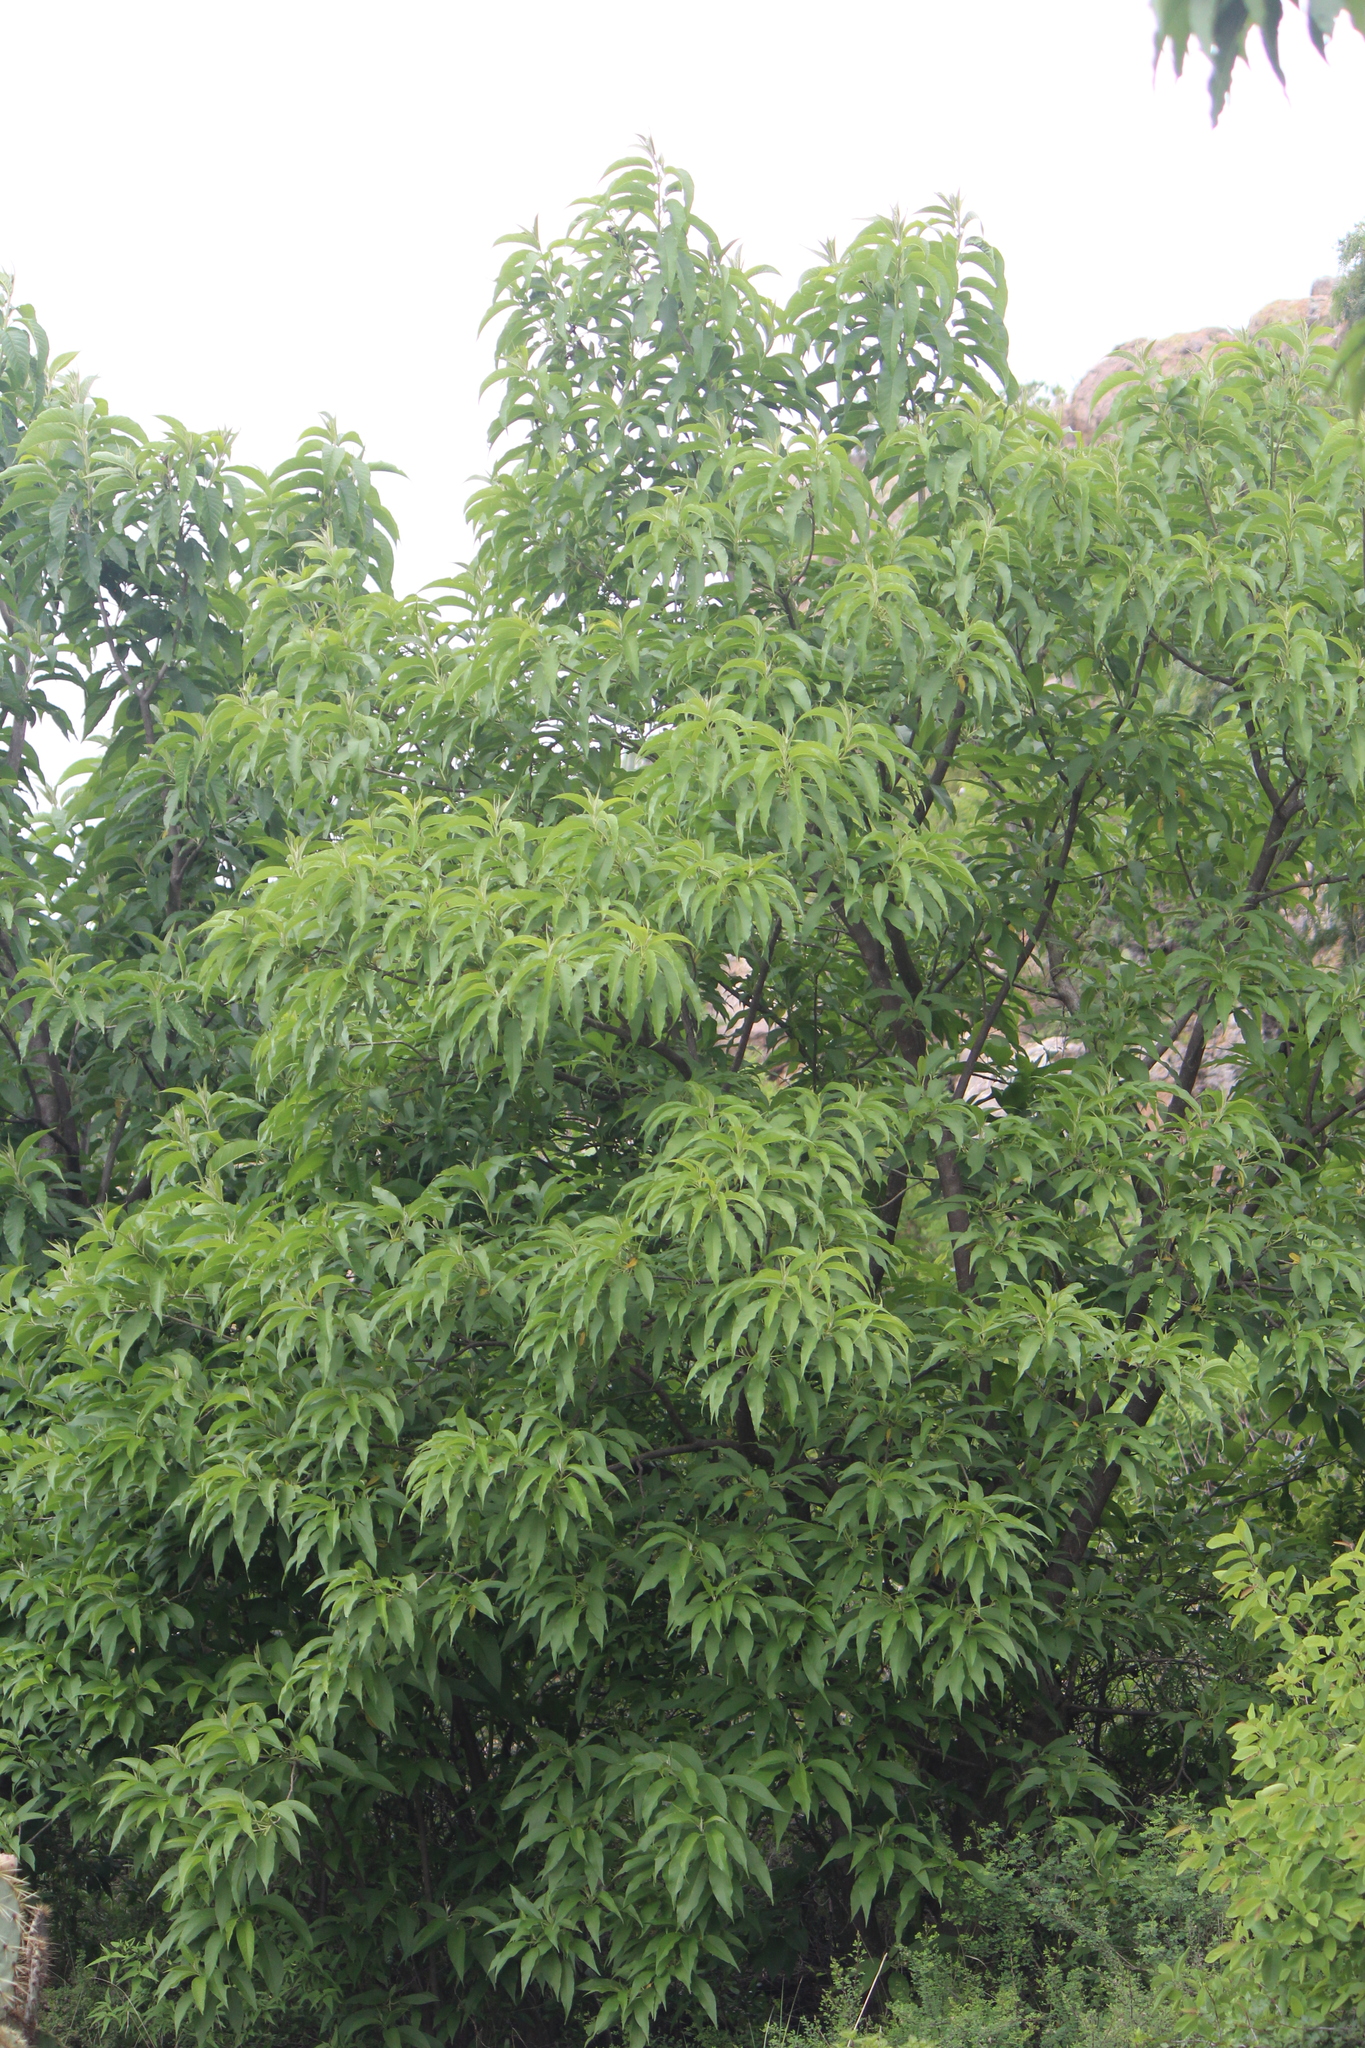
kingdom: Plantae
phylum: Tracheophyta
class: Magnoliopsida
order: Solanales
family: Convolvulaceae
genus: Ipomoea
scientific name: Ipomoea murucoides
